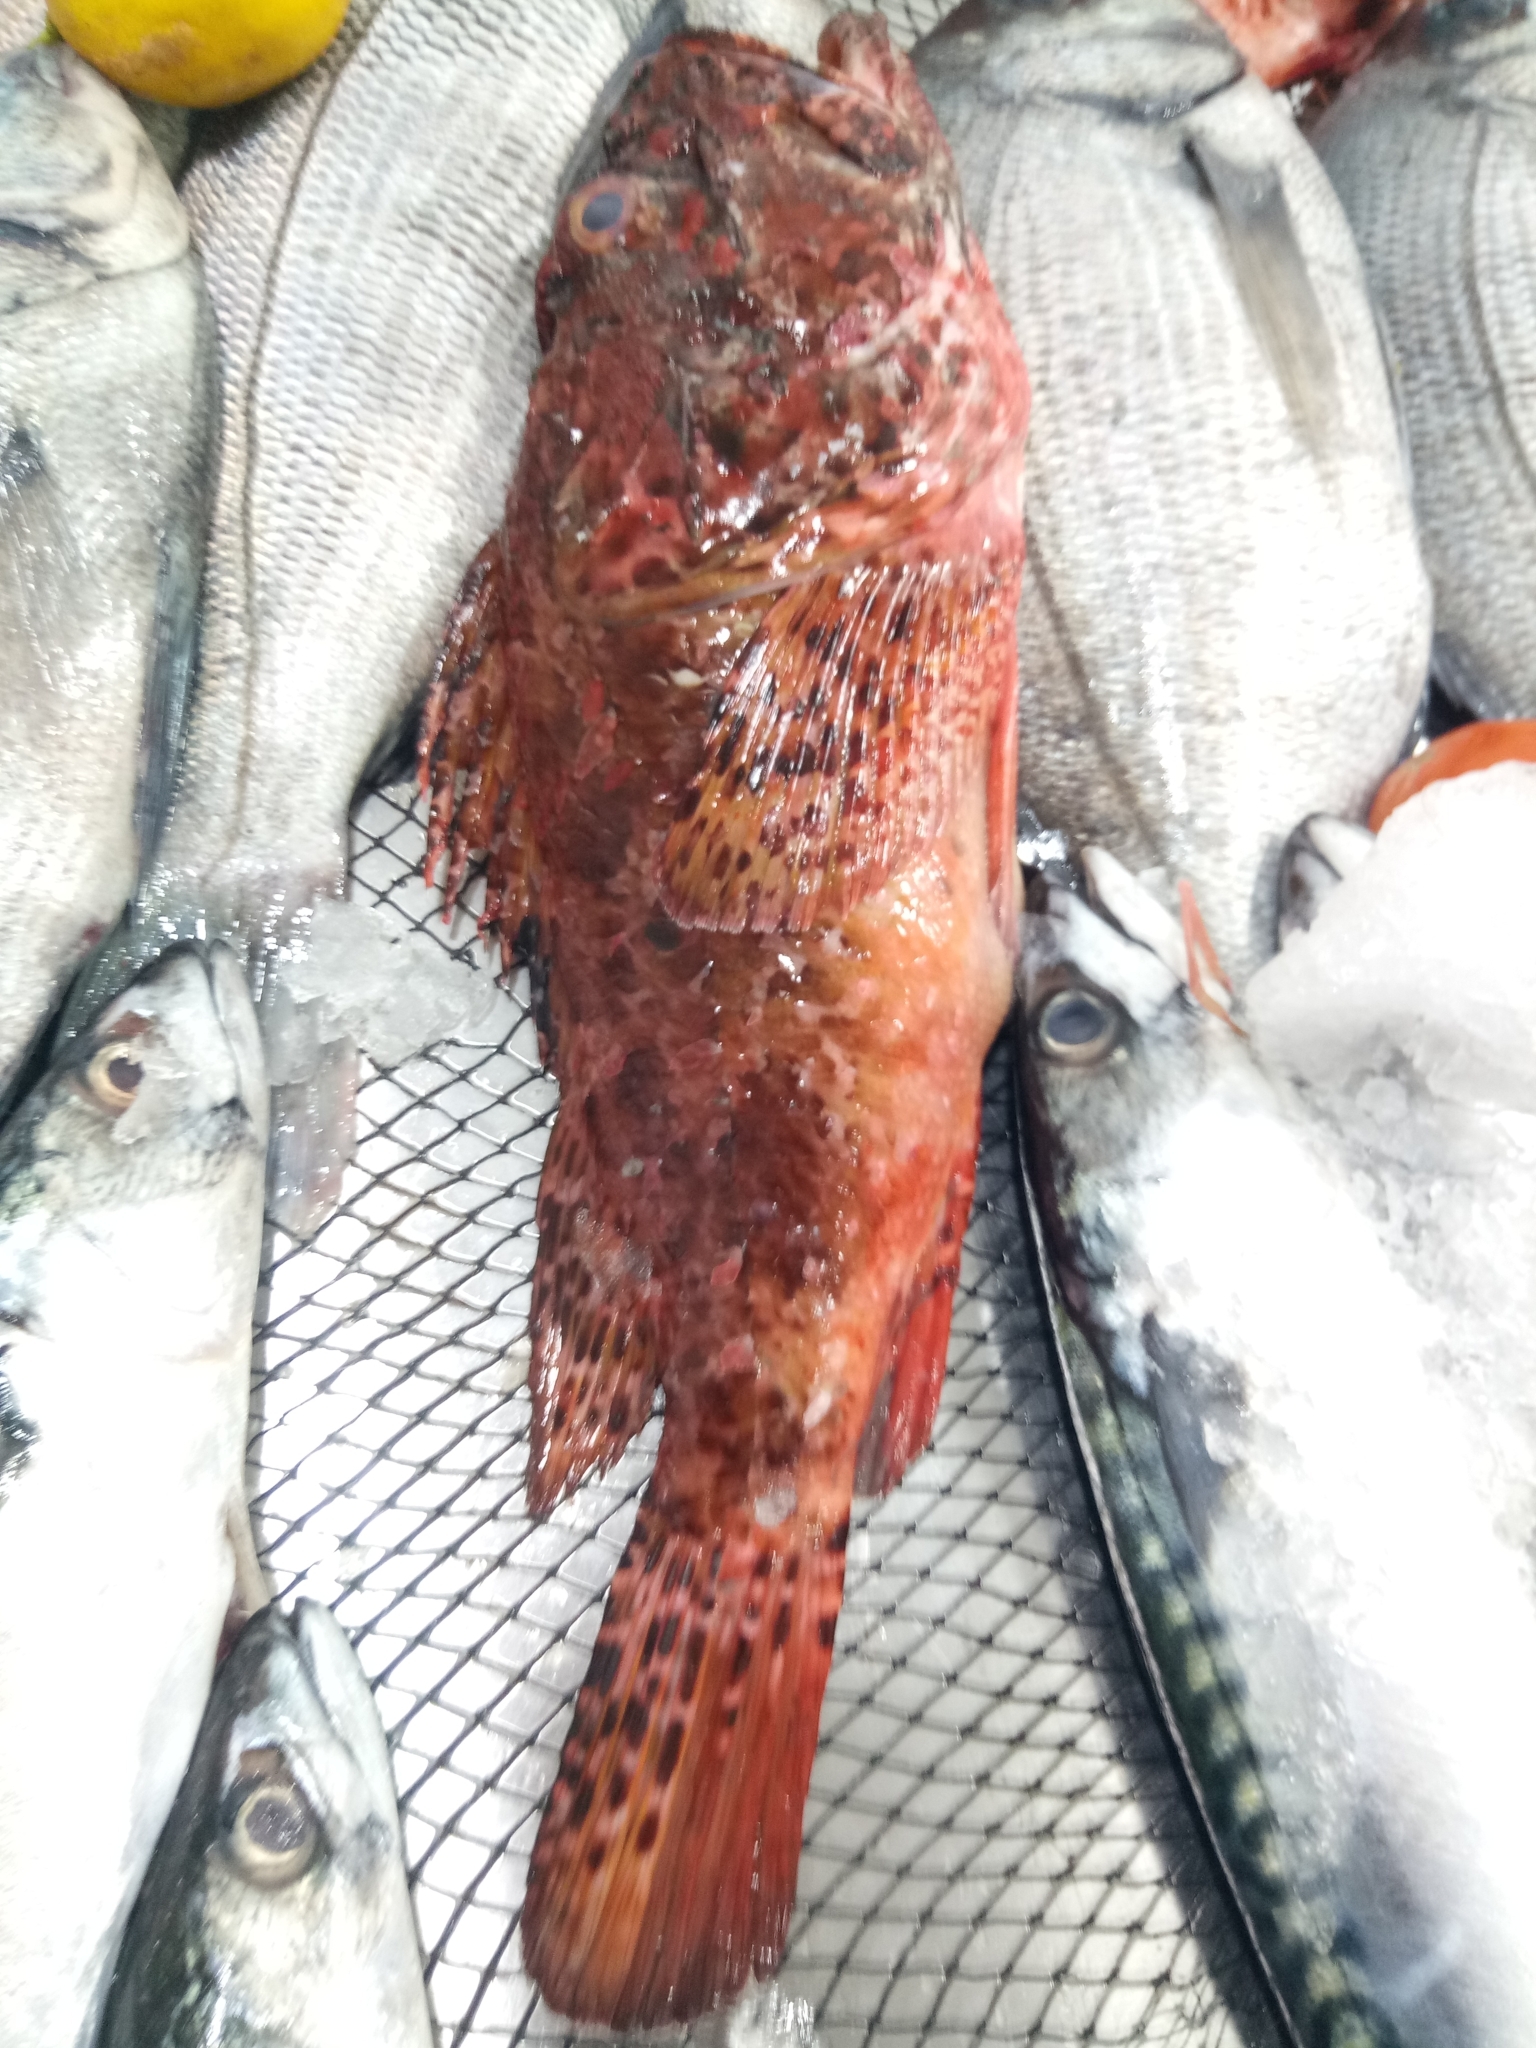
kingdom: Animalia
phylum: Chordata
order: Scorpaeniformes
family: Scorpaenidae
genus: Scorpaena
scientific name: Scorpaena scrofa
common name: Red scorpionfish
